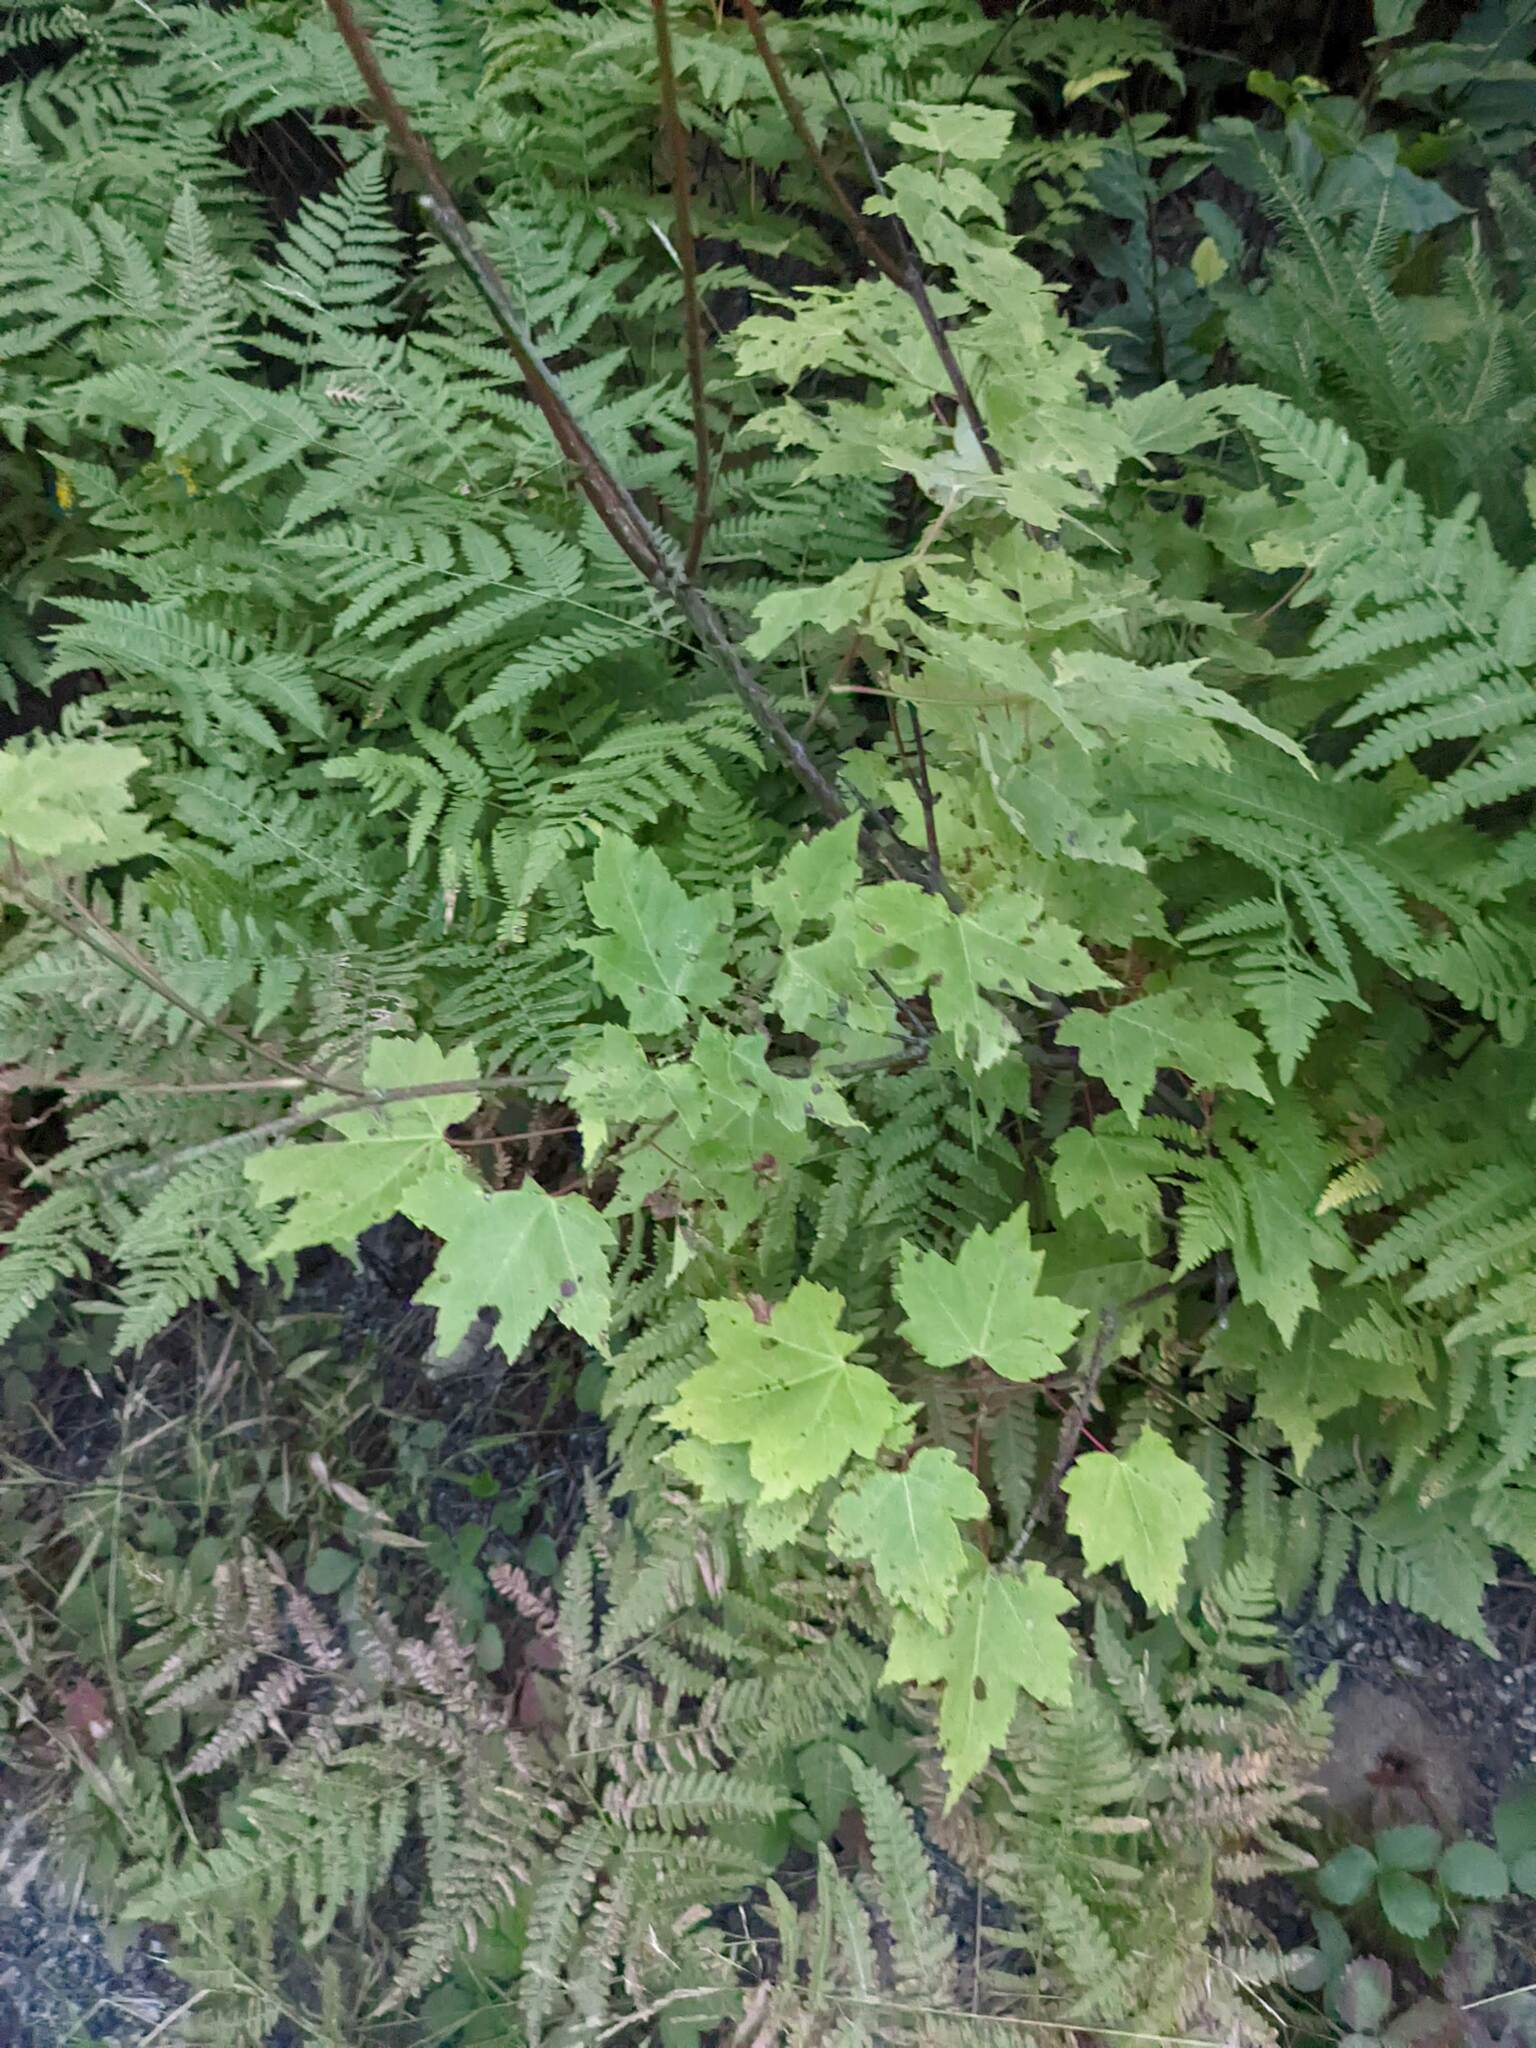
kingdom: Plantae
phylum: Tracheophyta
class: Magnoliopsida
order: Sapindales
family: Sapindaceae
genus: Acer
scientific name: Acer rubrum
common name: Red maple
